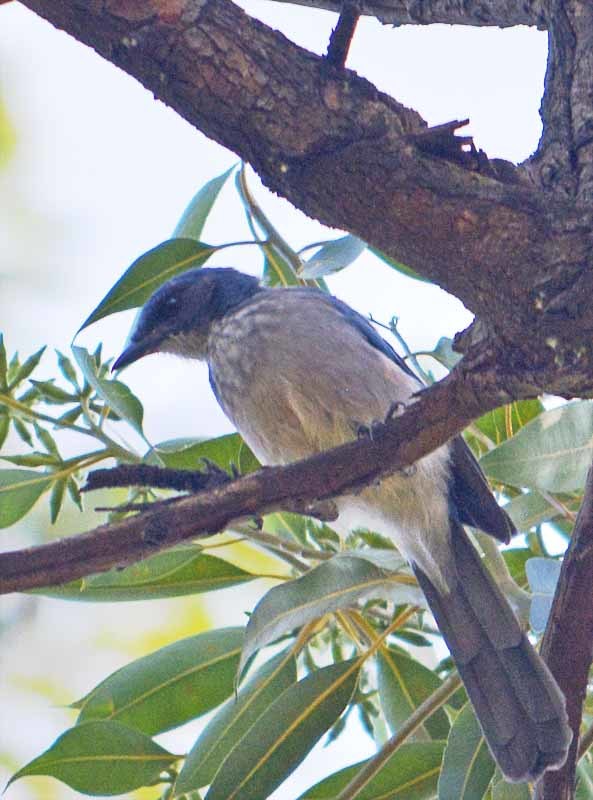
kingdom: Animalia
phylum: Chordata
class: Aves
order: Passeriformes
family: Corvidae
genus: Aphelocoma
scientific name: Aphelocoma woodhouseii
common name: Woodhouse's scrub-jay
